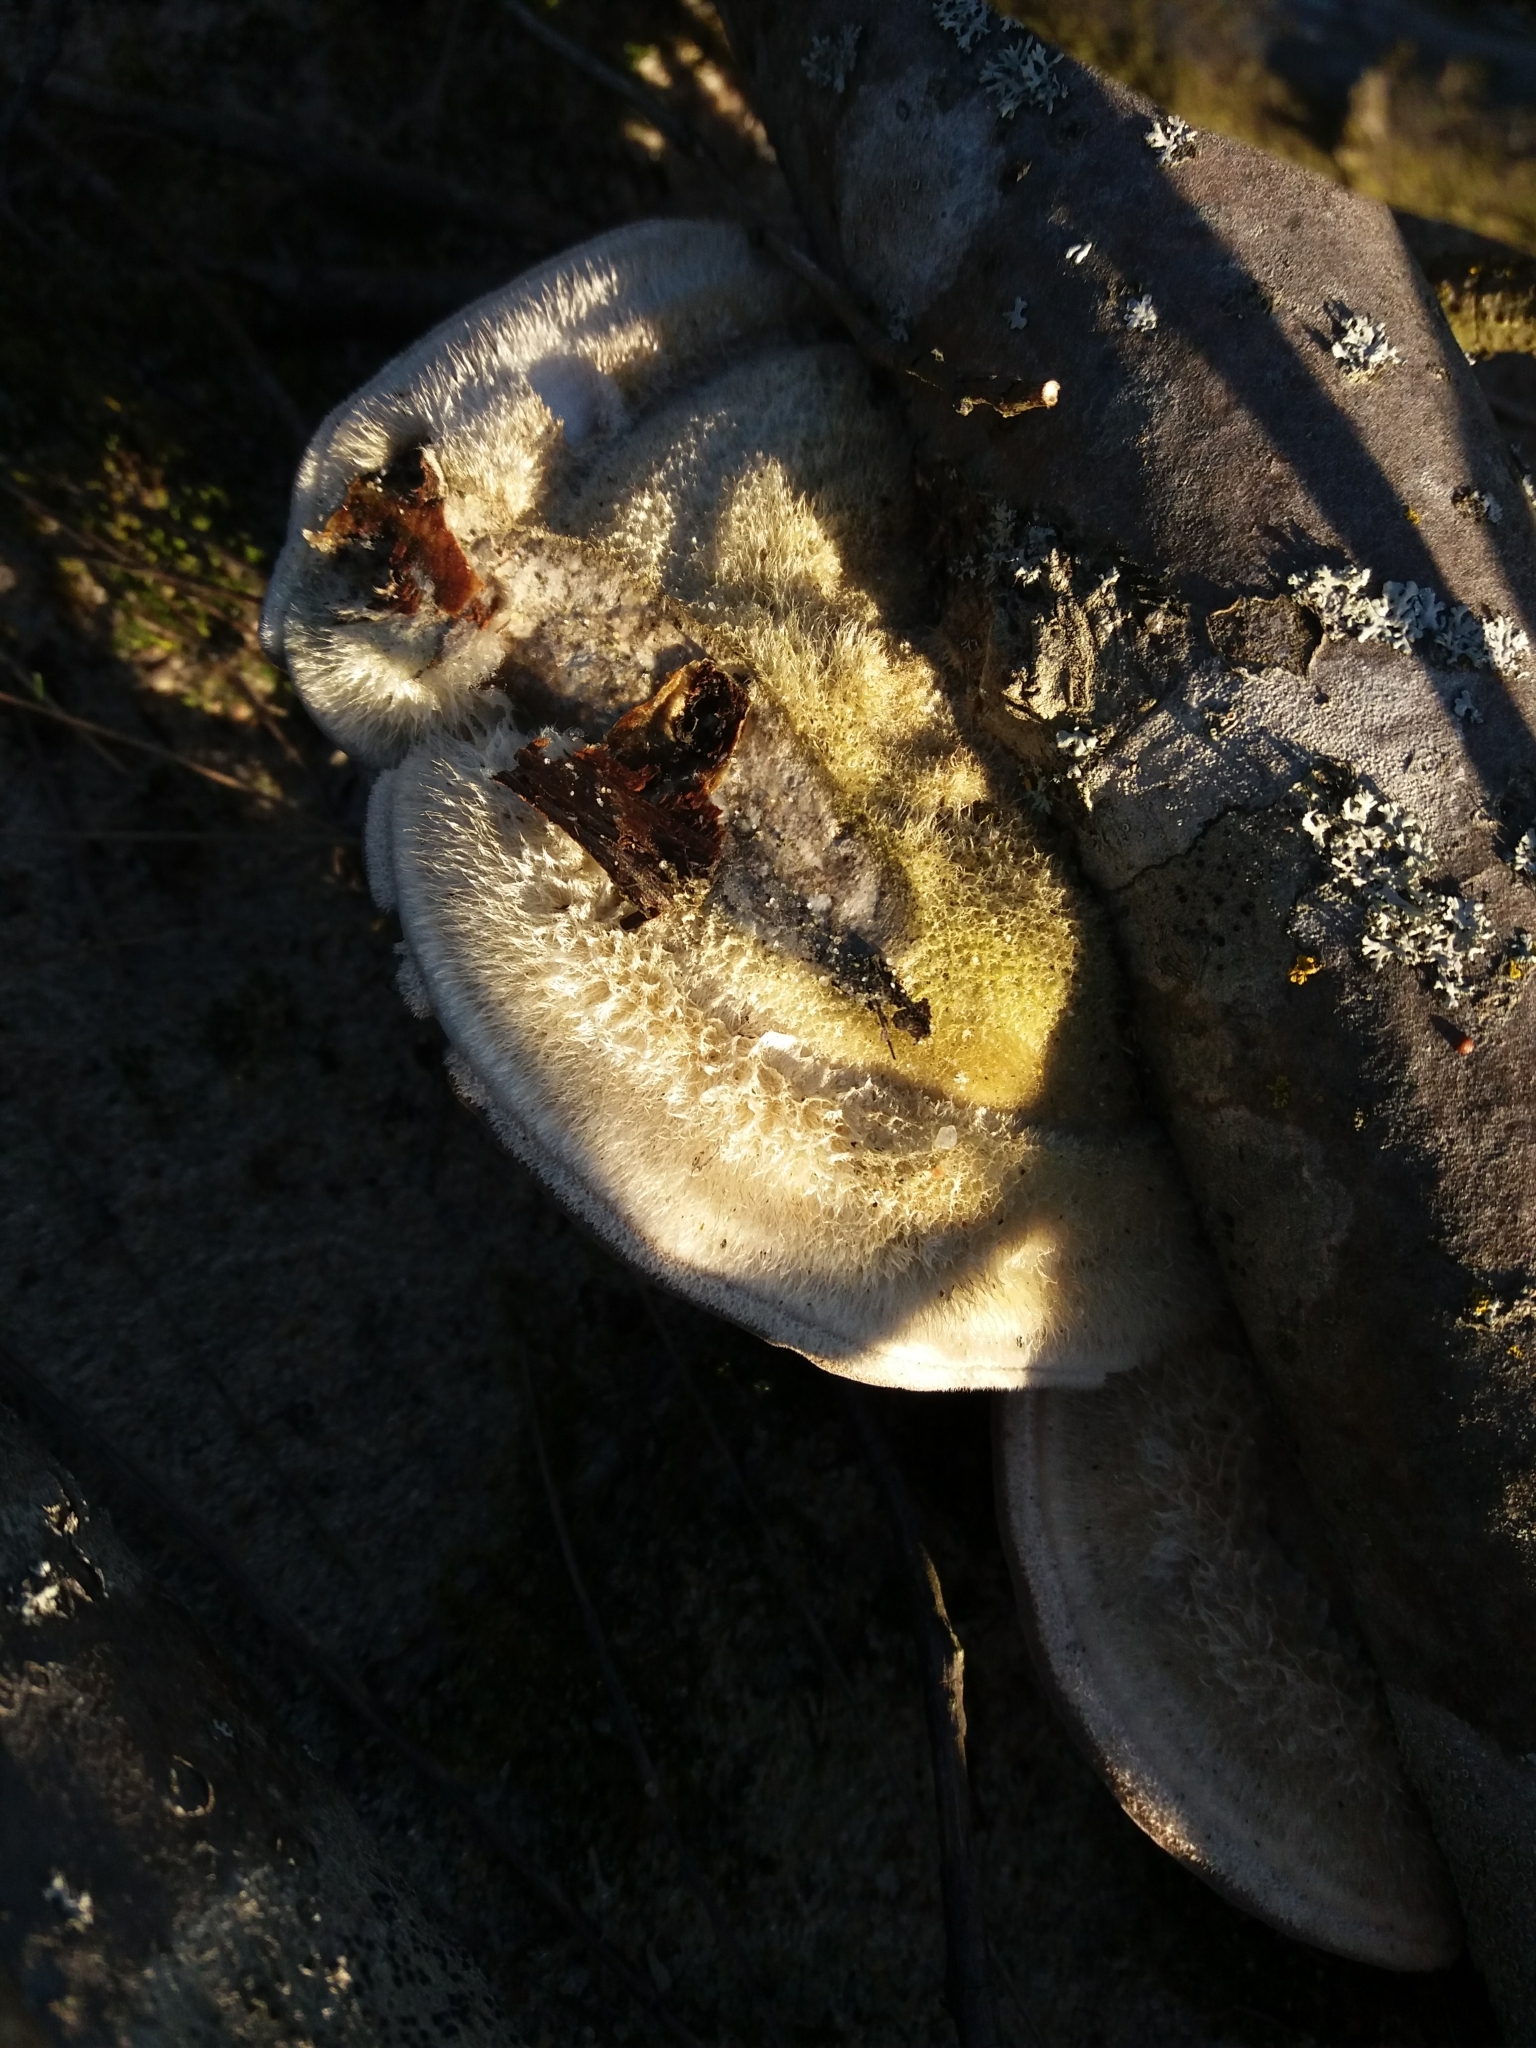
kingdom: Fungi
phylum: Basidiomycota
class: Agaricomycetes
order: Polyporales
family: Polyporaceae
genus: Trametes
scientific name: Trametes hirsuta
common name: Hairy bracket
